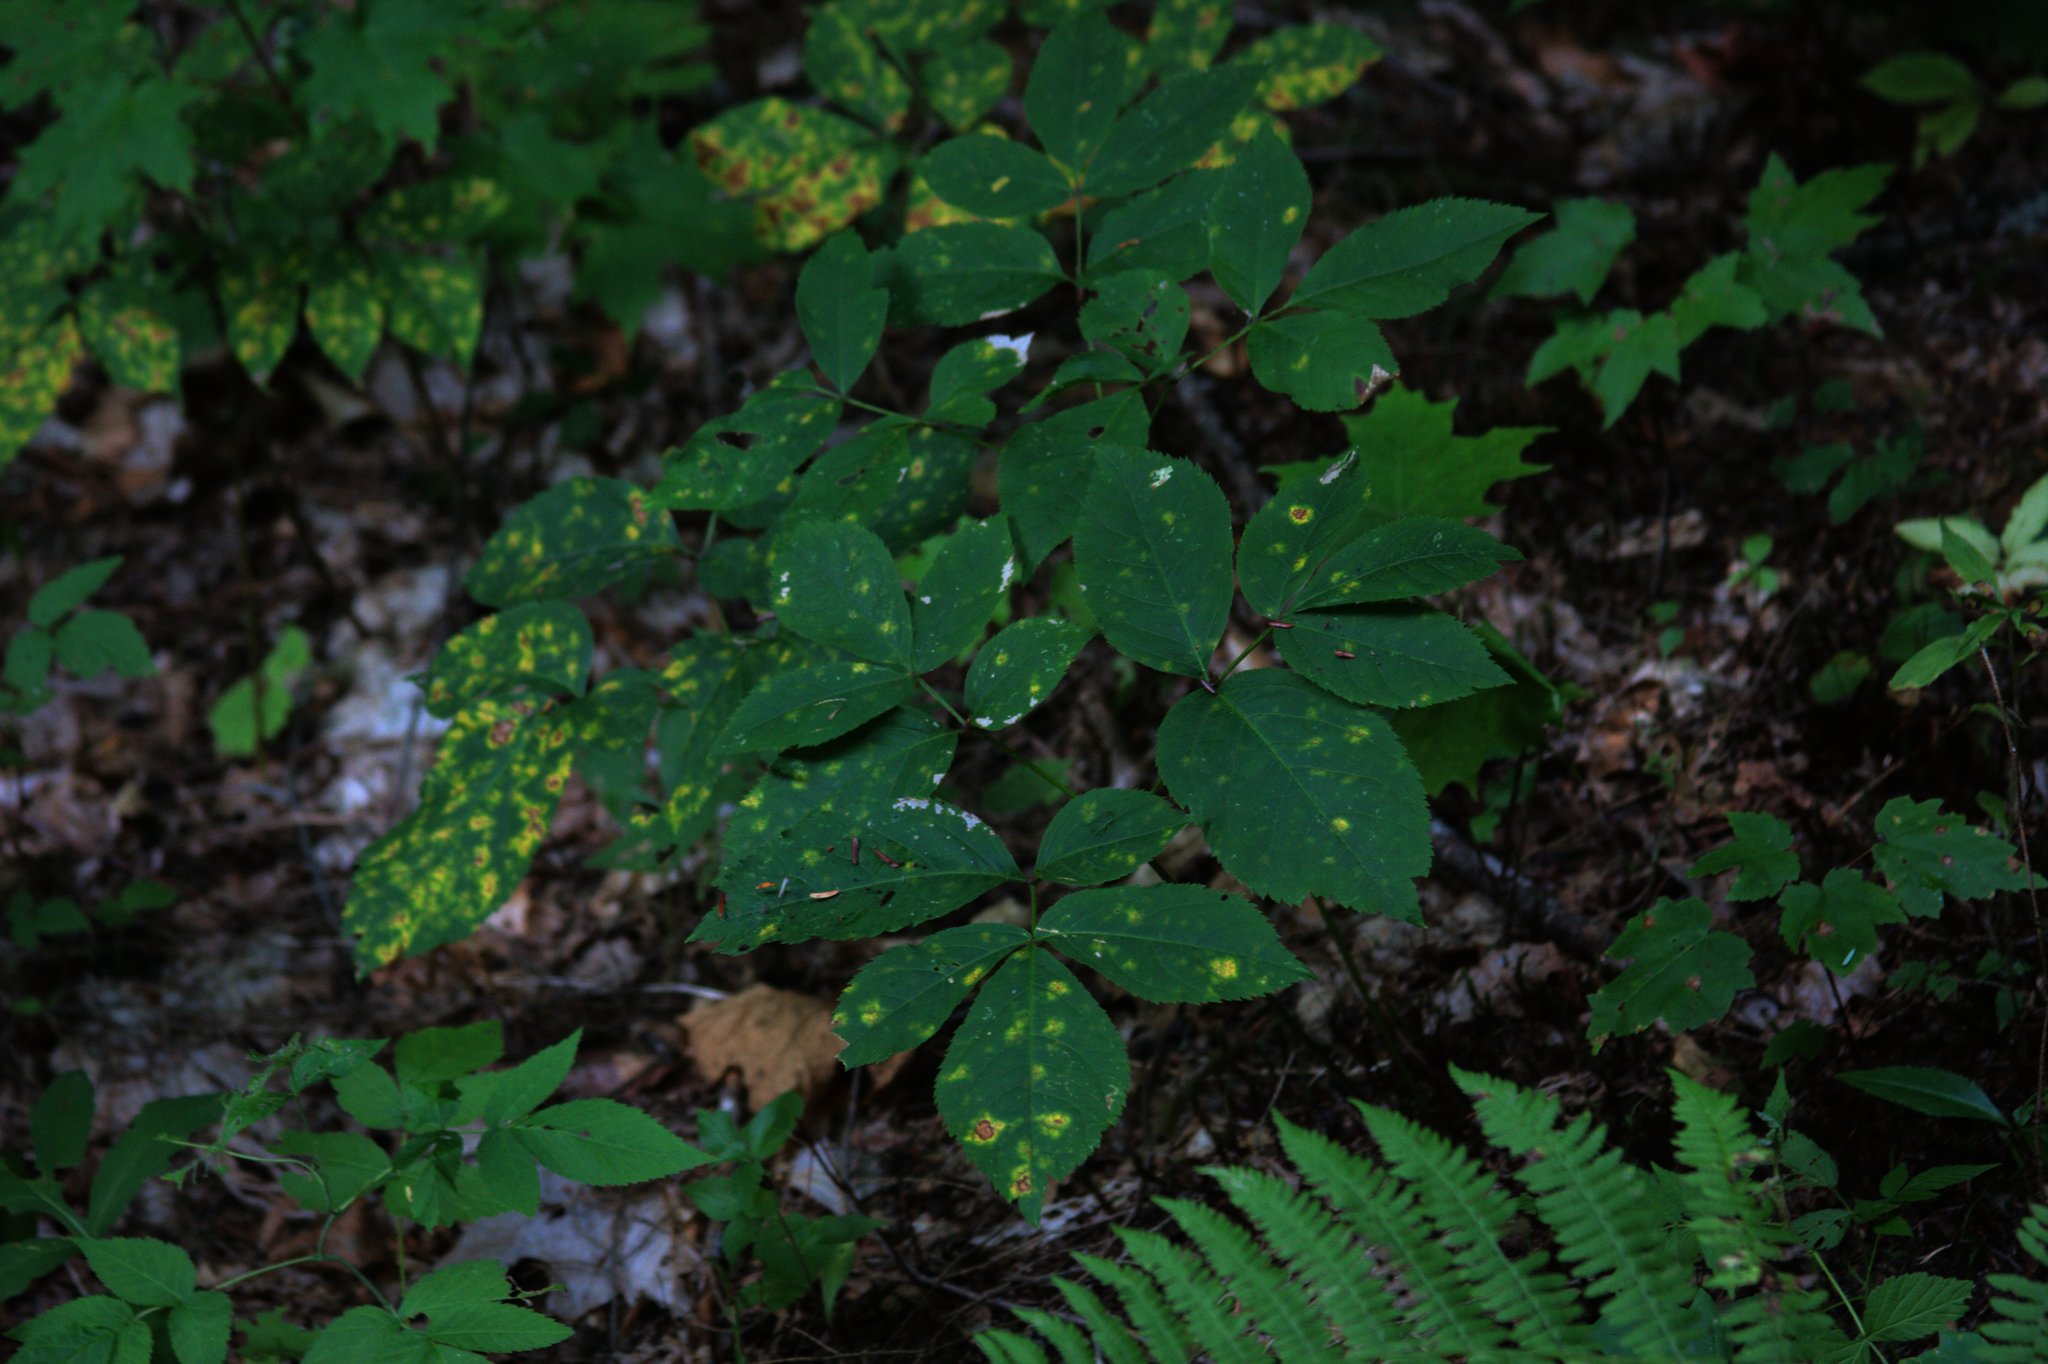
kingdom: Plantae
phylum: Tracheophyta
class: Magnoliopsida
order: Apiales
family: Araliaceae
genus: Aralia
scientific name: Aralia nudicaulis
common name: Wild sarsaparilla
